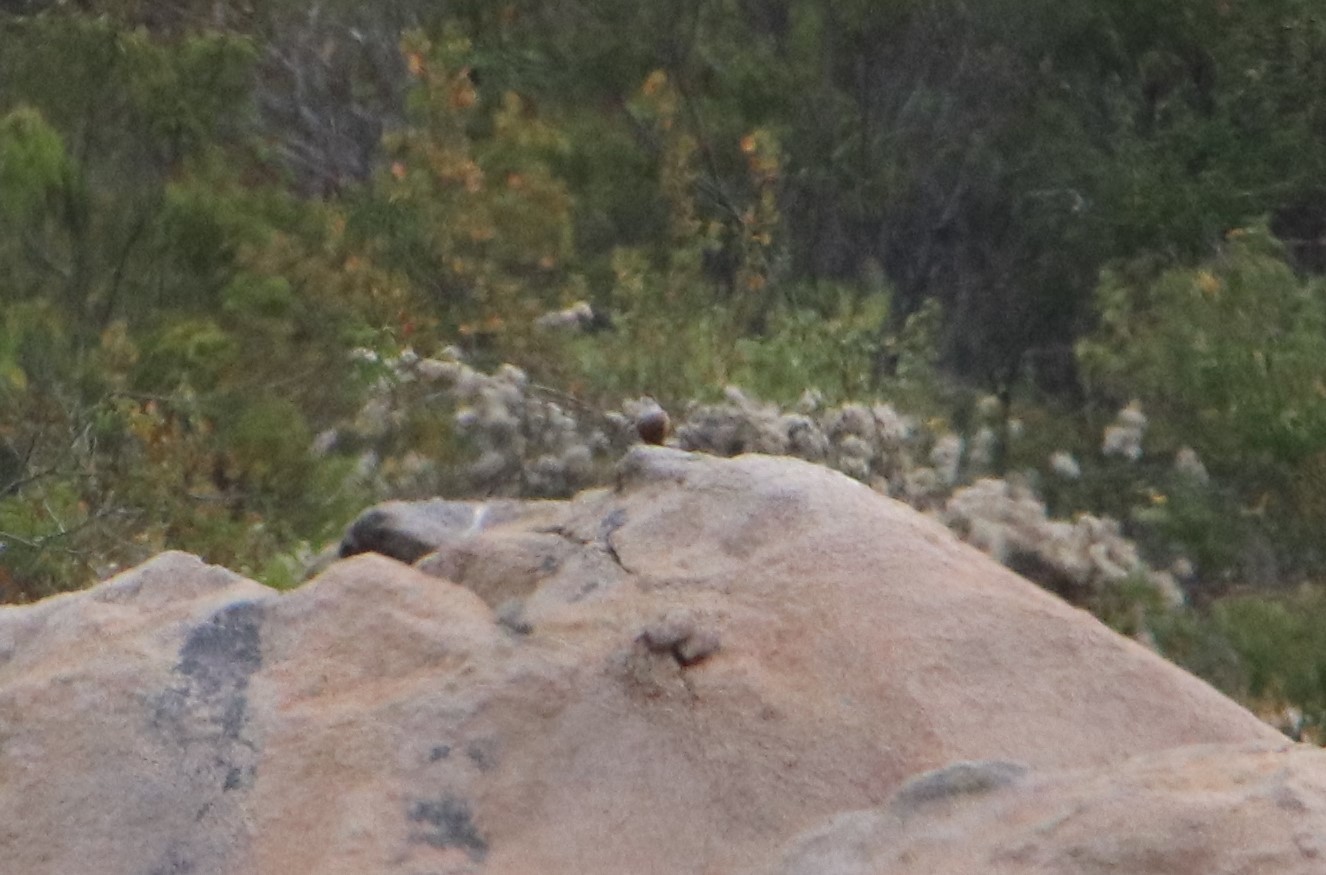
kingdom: Animalia
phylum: Chordata
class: Aves
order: Passeriformes
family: Troglodytidae
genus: Catherpes
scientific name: Catherpes mexicanus
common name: Canyon wren
